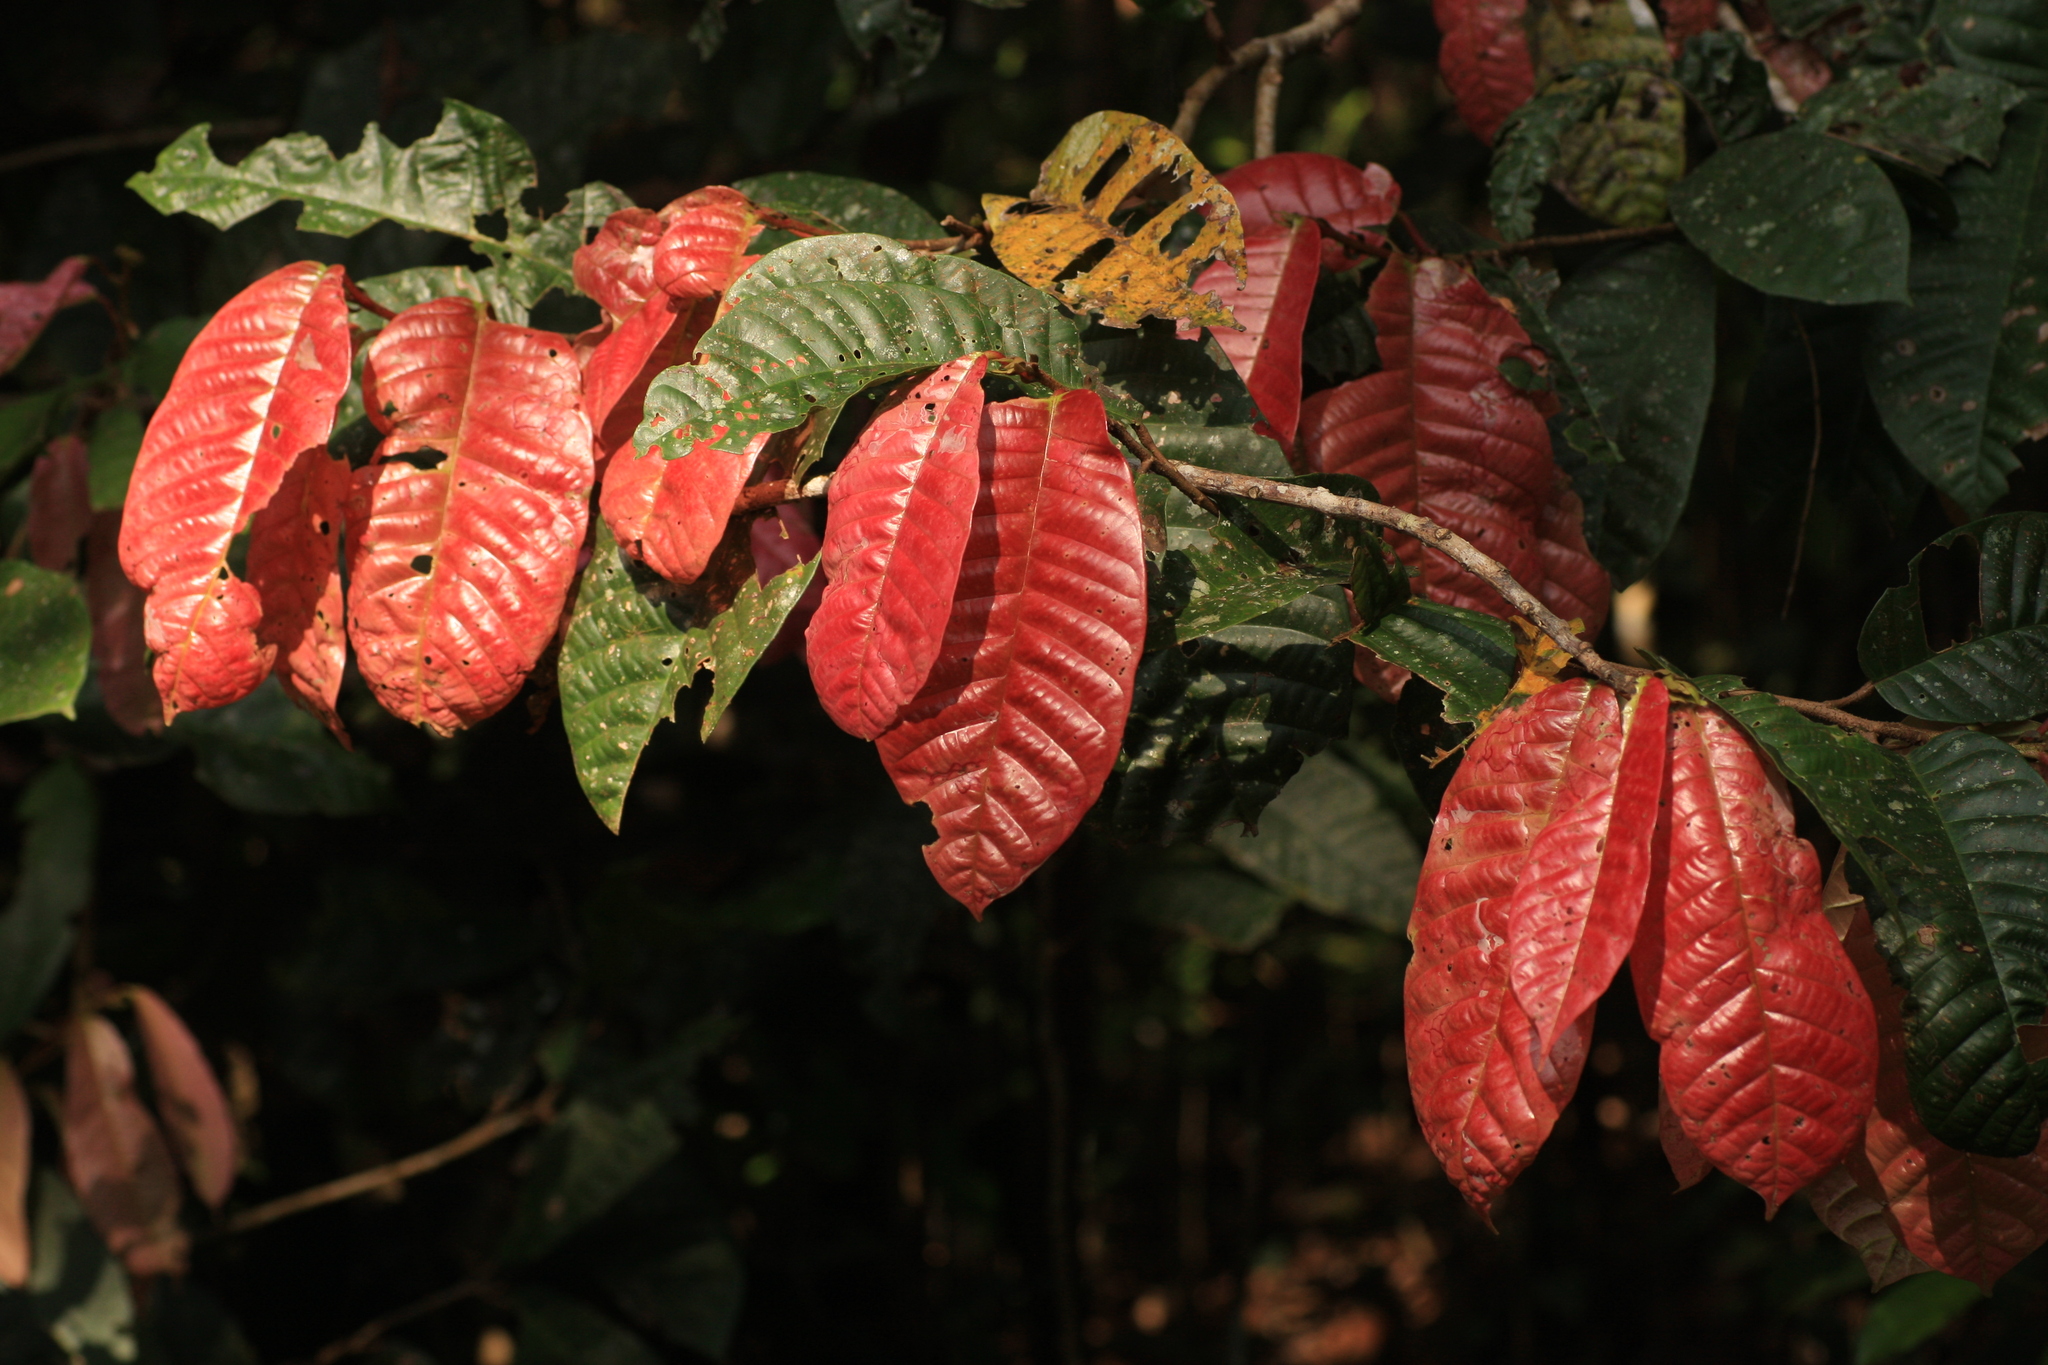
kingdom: Plantae
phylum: Tracheophyta
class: Magnoliopsida
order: Malvales
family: Dipterocarpaceae
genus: Vateria
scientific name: Vateria indica
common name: White dammar
